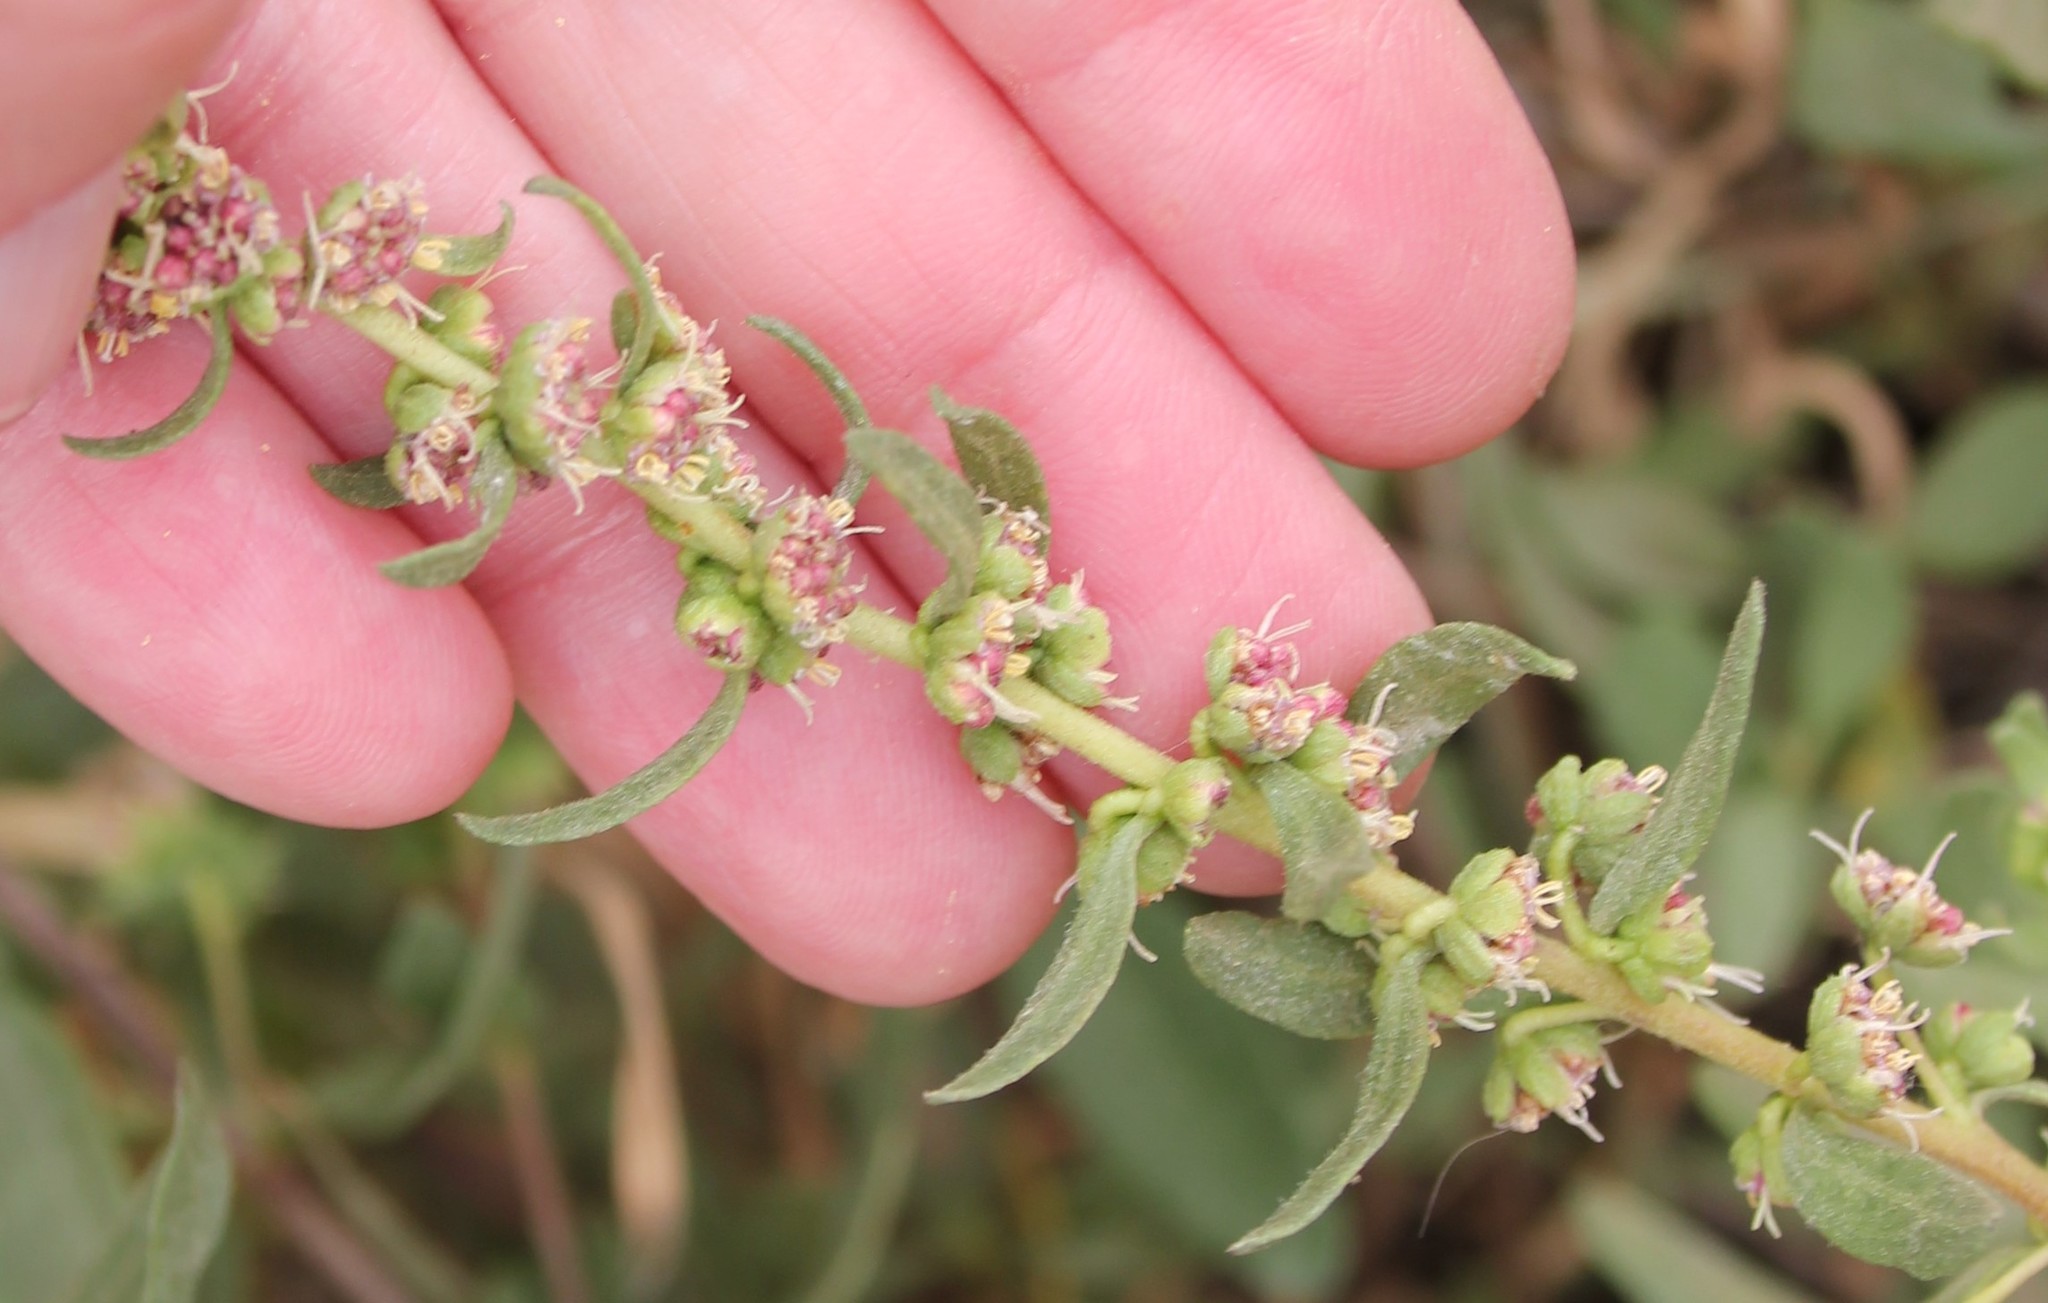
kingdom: Plantae
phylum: Tracheophyta
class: Magnoliopsida
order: Asterales
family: Asteraceae
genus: Iva
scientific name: Iva hayesiana
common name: San diego marsh-elder
